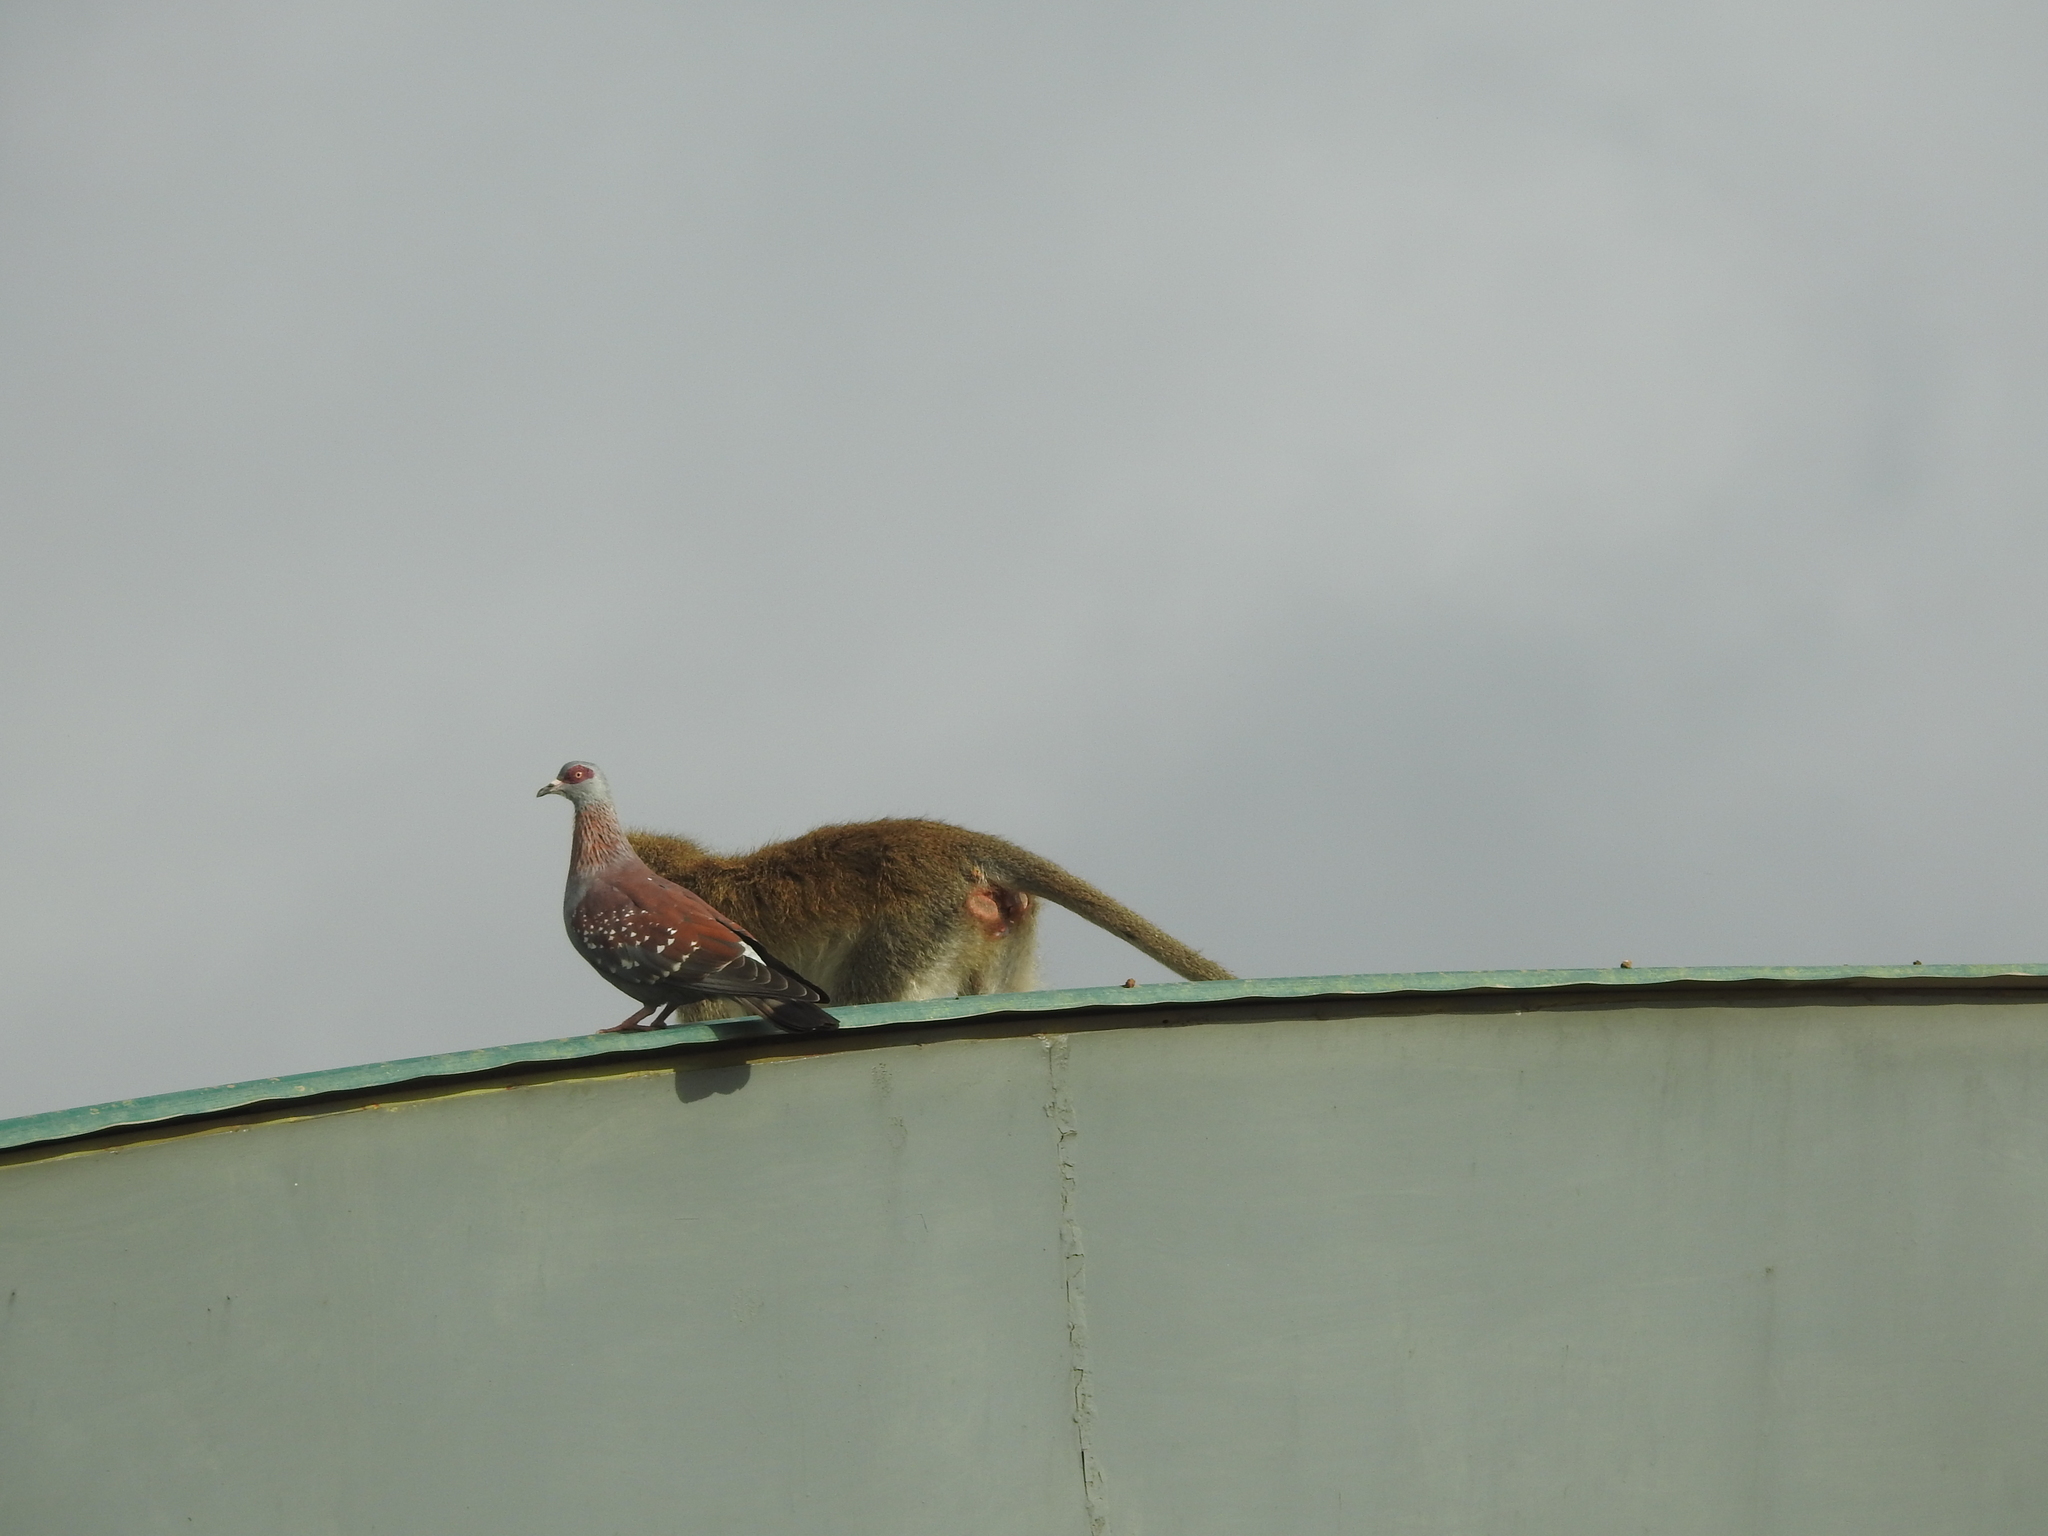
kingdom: Animalia
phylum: Chordata
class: Mammalia
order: Primates
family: Cercopithecidae
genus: Chlorocebus
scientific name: Chlorocebus pygerythrus
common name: Vervet monkey
